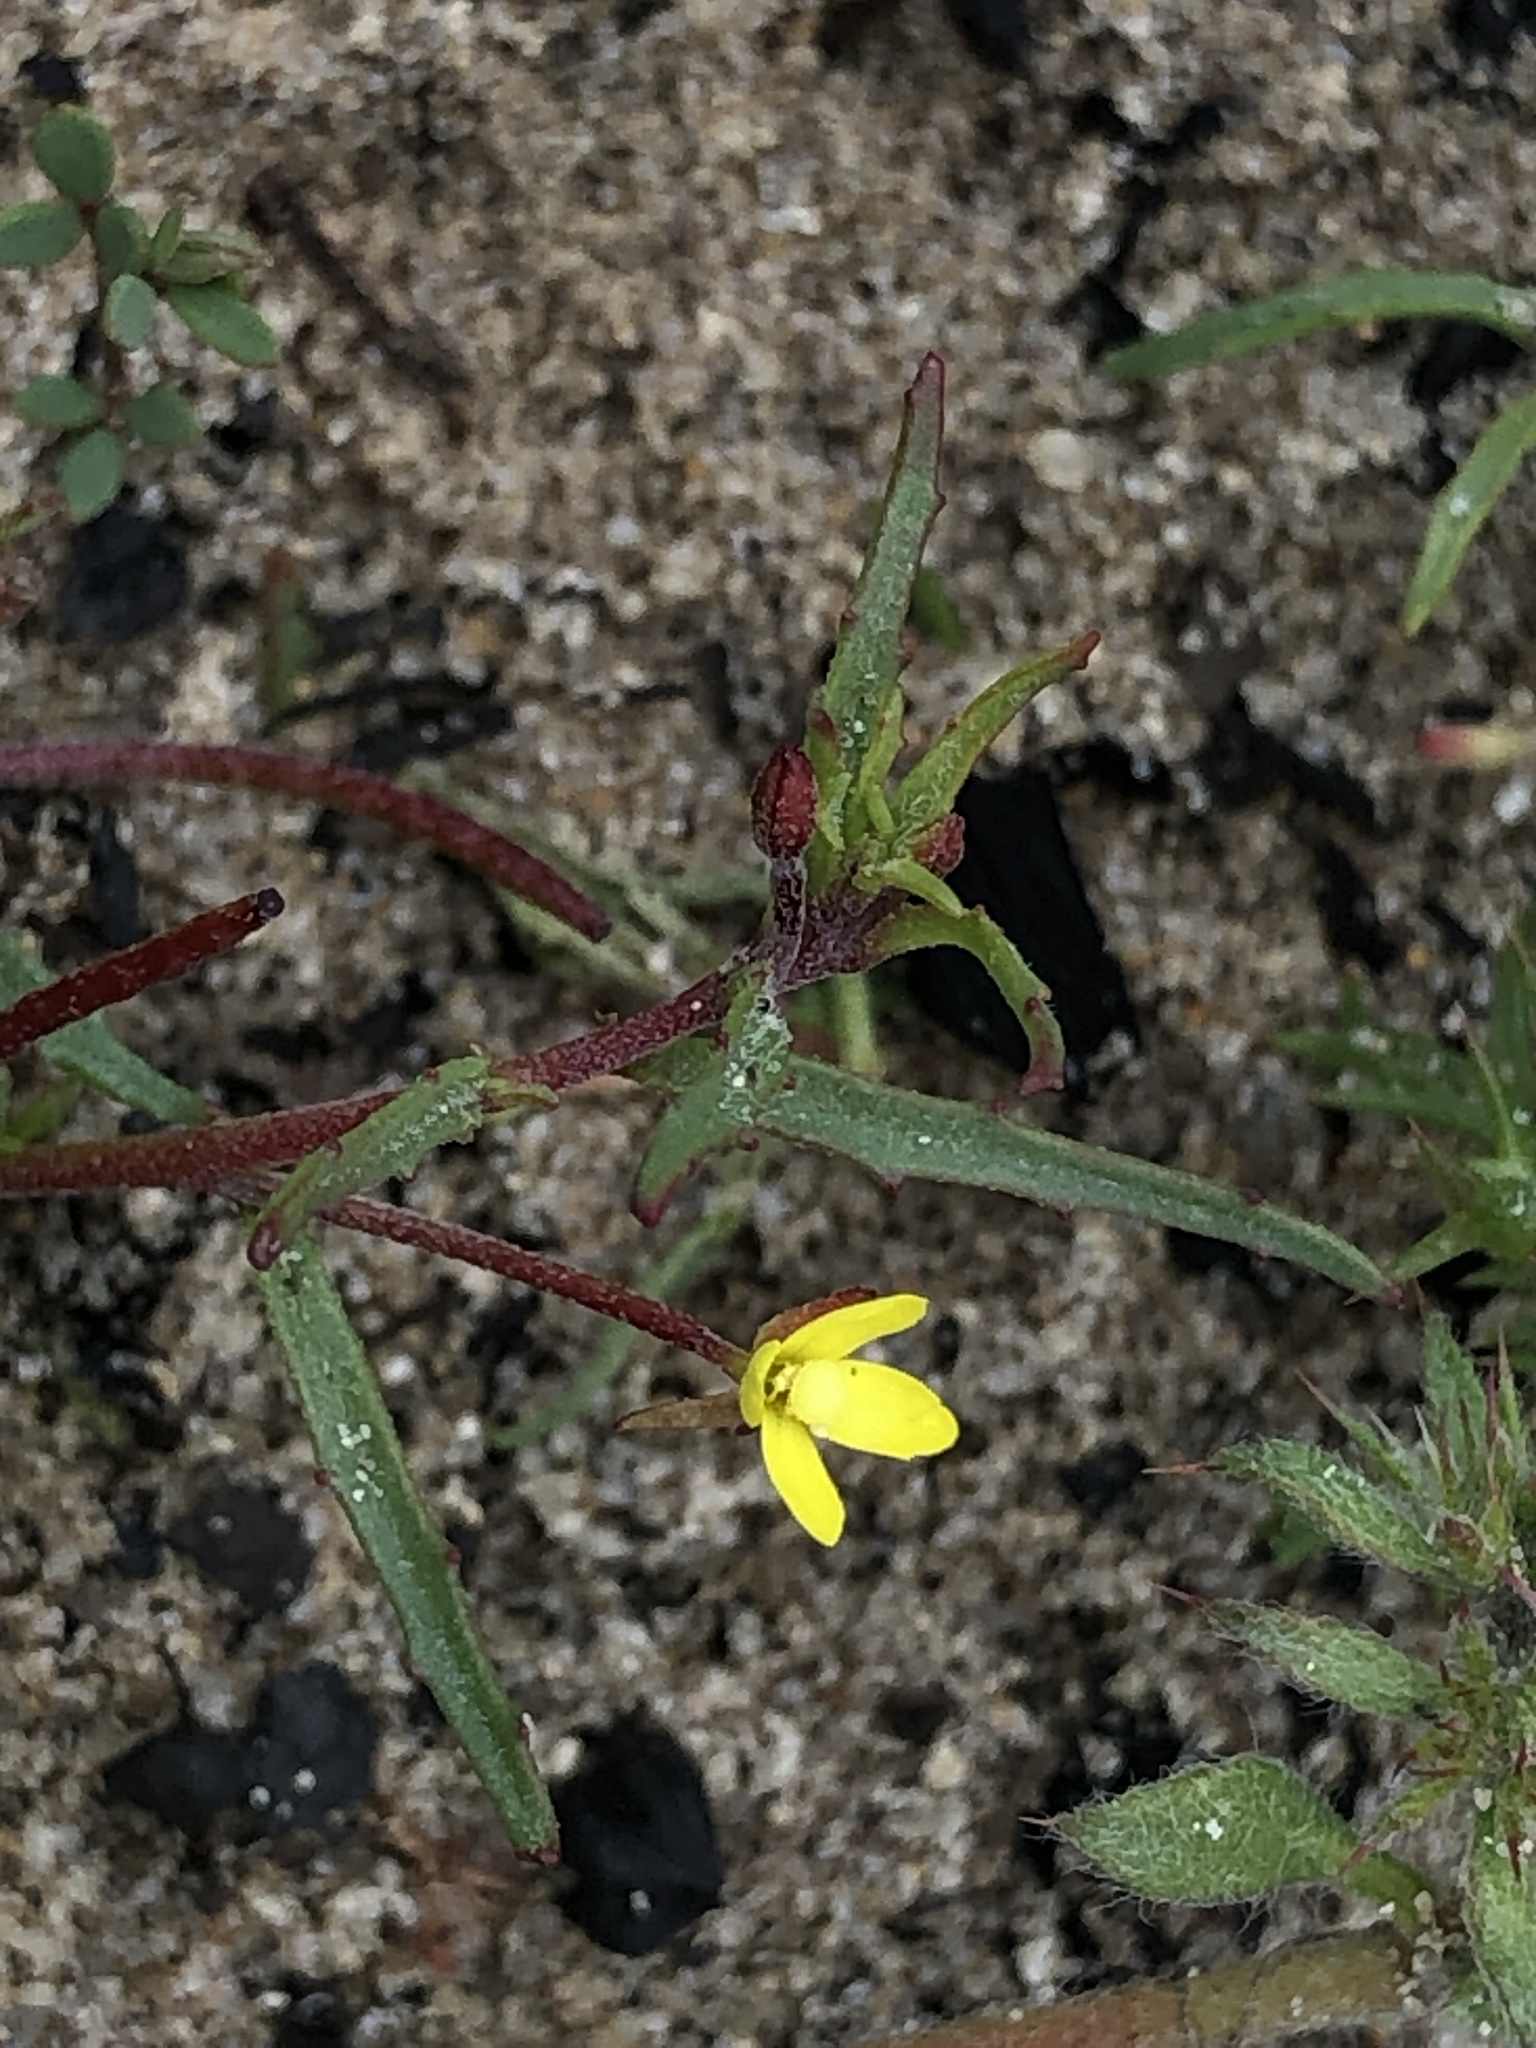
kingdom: Plantae
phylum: Tracheophyta
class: Magnoliopsida
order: Myrtales
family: Onagraceae
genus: Camissonia
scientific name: Camissonia strigulosa
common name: Contorted-primrose
